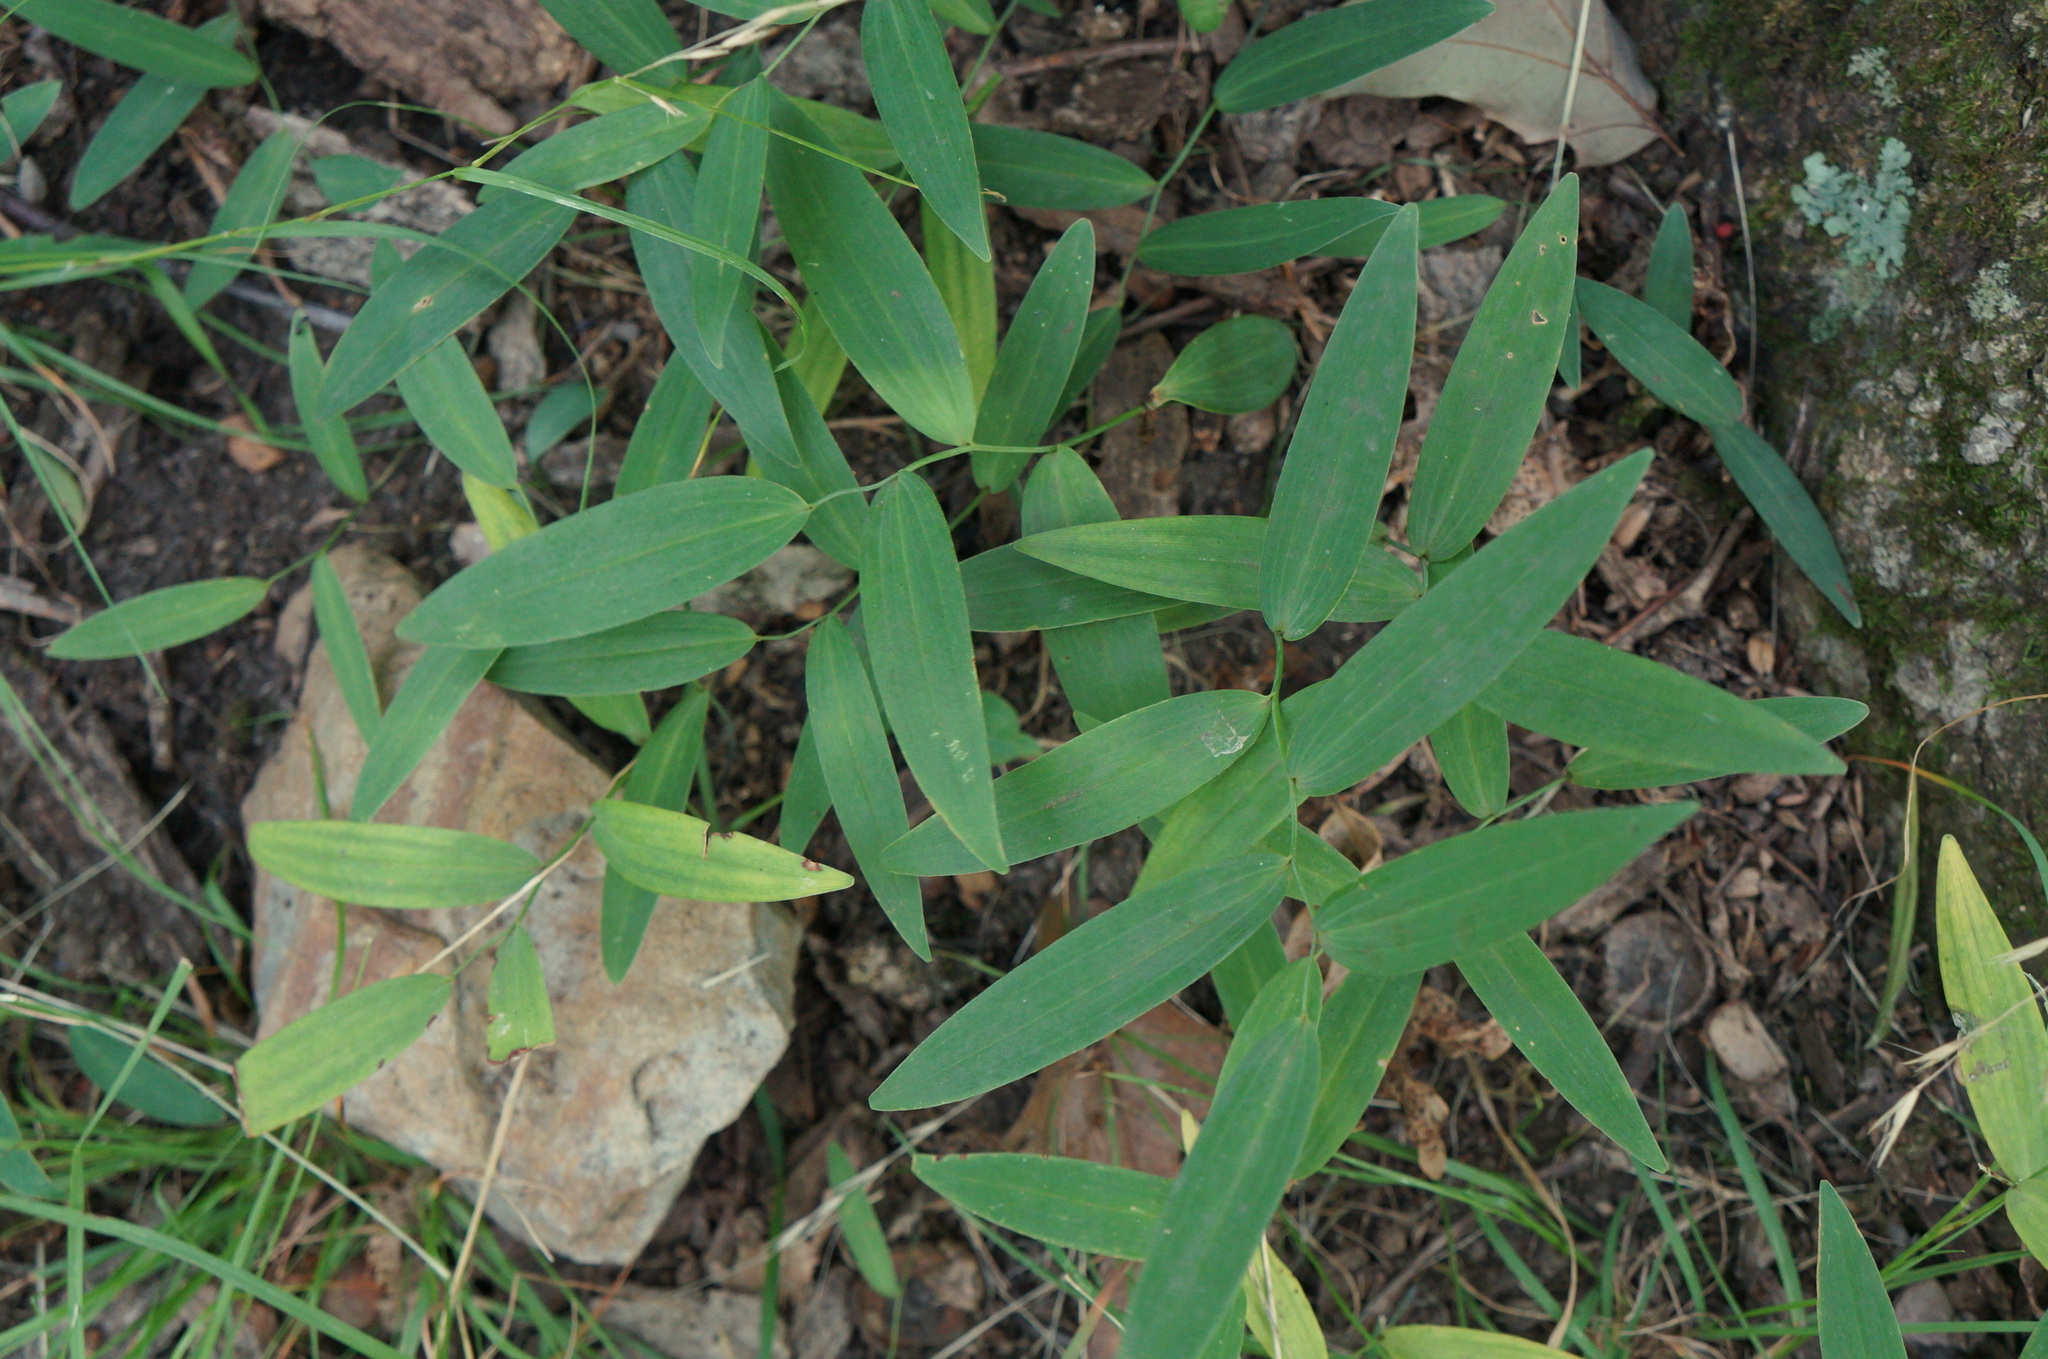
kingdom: Plantae
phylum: Tracheophyta
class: Liliopsida
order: Liliales
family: Colchicaceae
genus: Uvularia
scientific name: Uvularia sessilifolia
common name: Straw-lily
